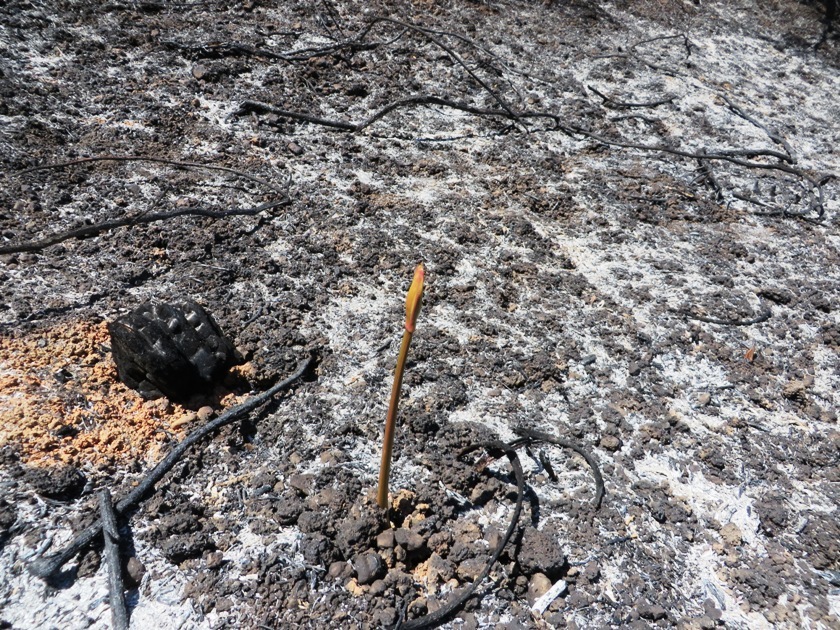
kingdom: Plantae
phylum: Tracheophyta
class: Liliopsida
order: Asparagales
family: Amaryllidaceae
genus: Amaryllis
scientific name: Amaryllis belladonna
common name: Jersey lily
